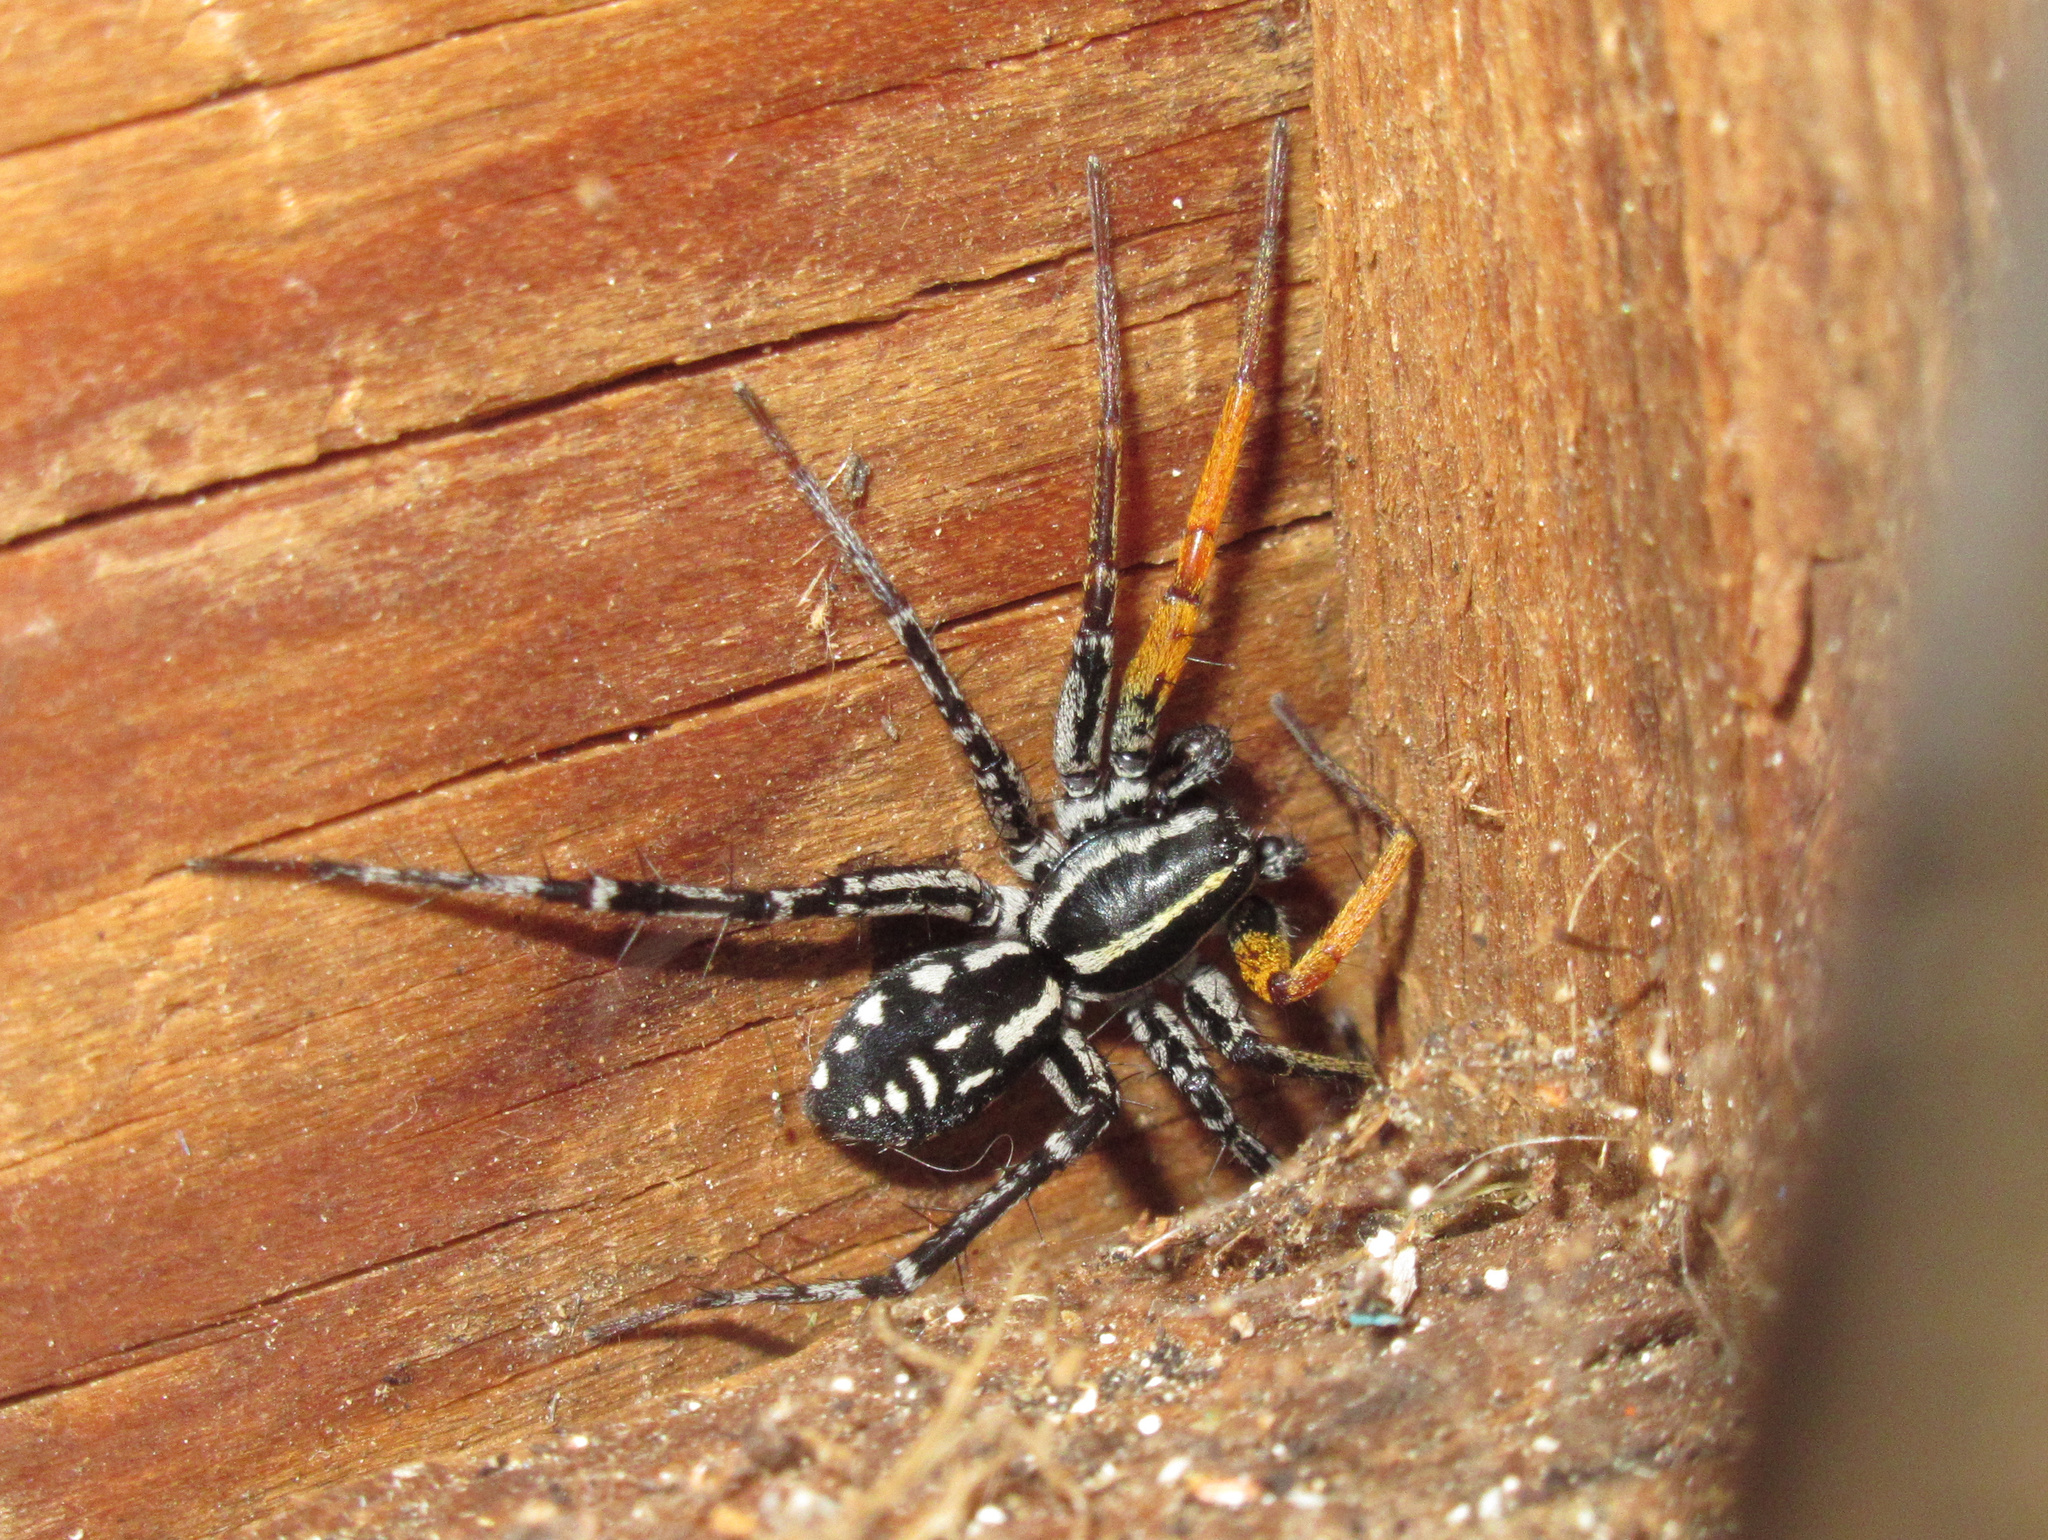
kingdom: Animalia
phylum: Arthropoda
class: Arachnida
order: Araneae
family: Corinnidae
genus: Nyssus
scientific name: Nyssus coloripes
